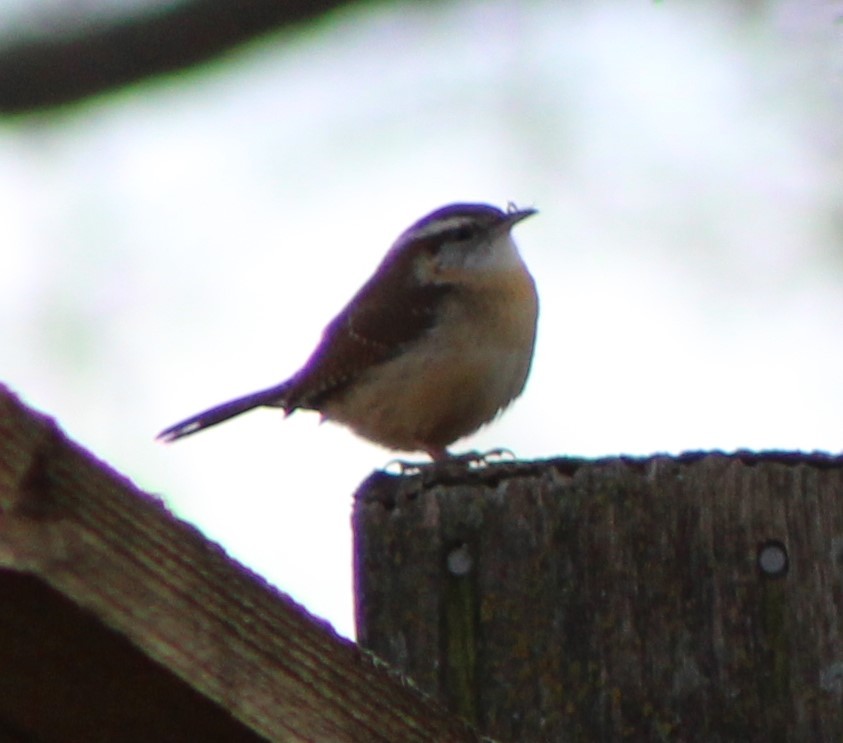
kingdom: Animalia
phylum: Chordata
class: Aves
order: Passeriformes
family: Troglodytidae
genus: Thryothorus
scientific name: Thryothorus ludovicianus
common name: Carolina wren
